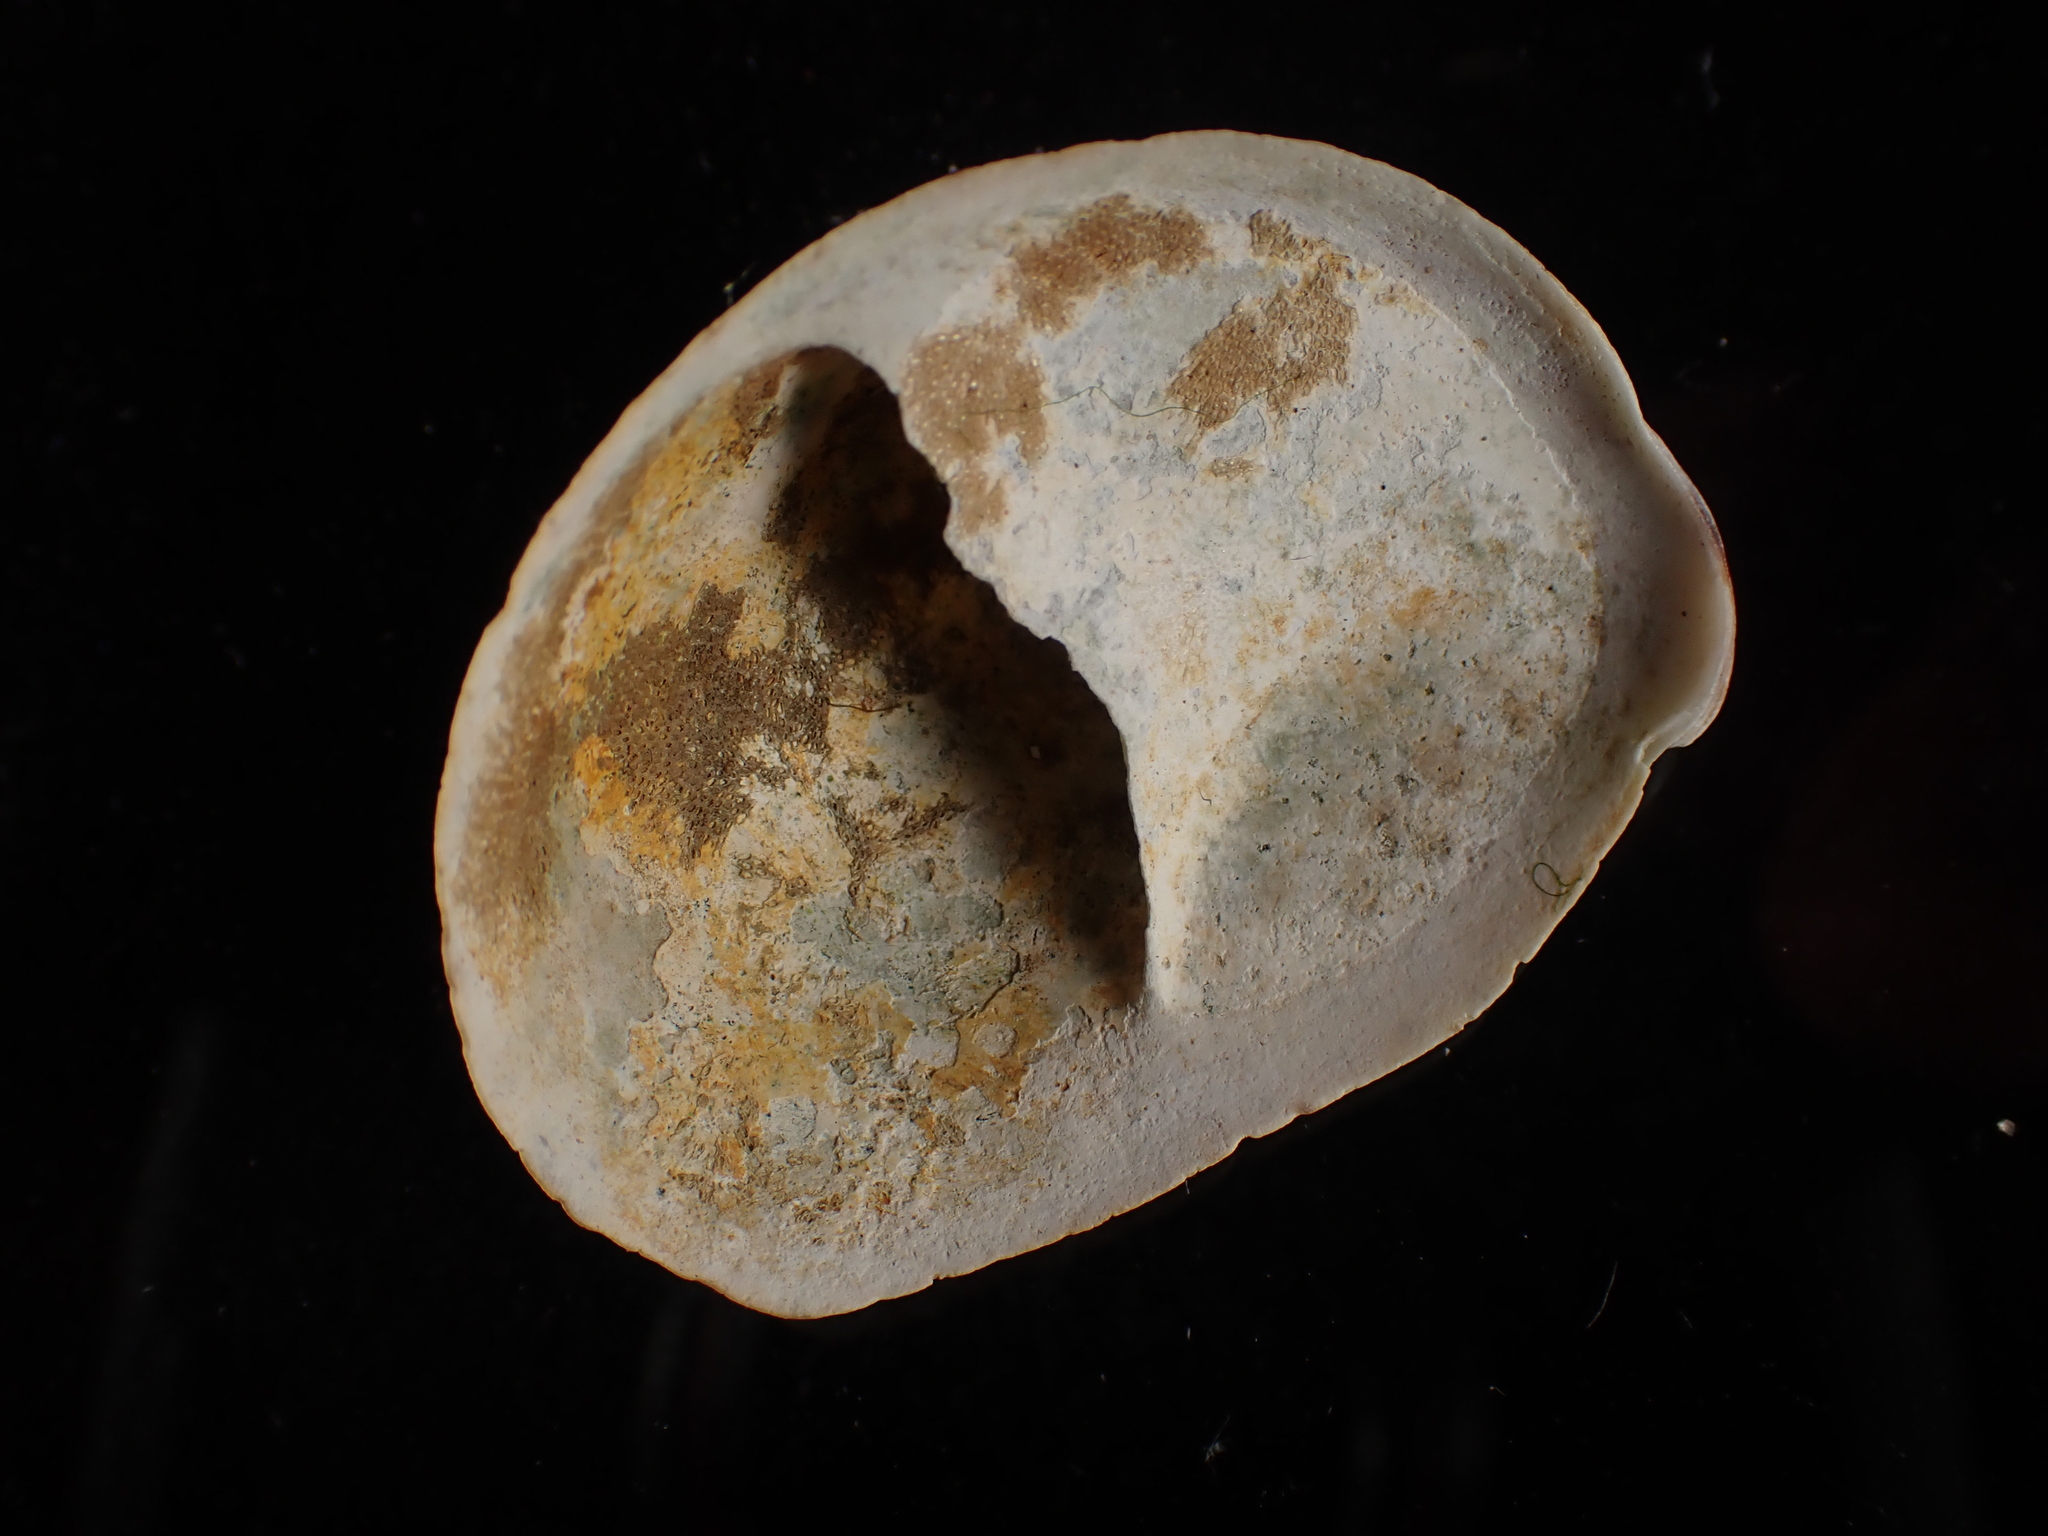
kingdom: Animalia
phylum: Mollusca
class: Gastropoda
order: Littorinimorpha
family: Calyptraeidae
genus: Crepidula
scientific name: Crepidula fornicata
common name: Slipper limpet
